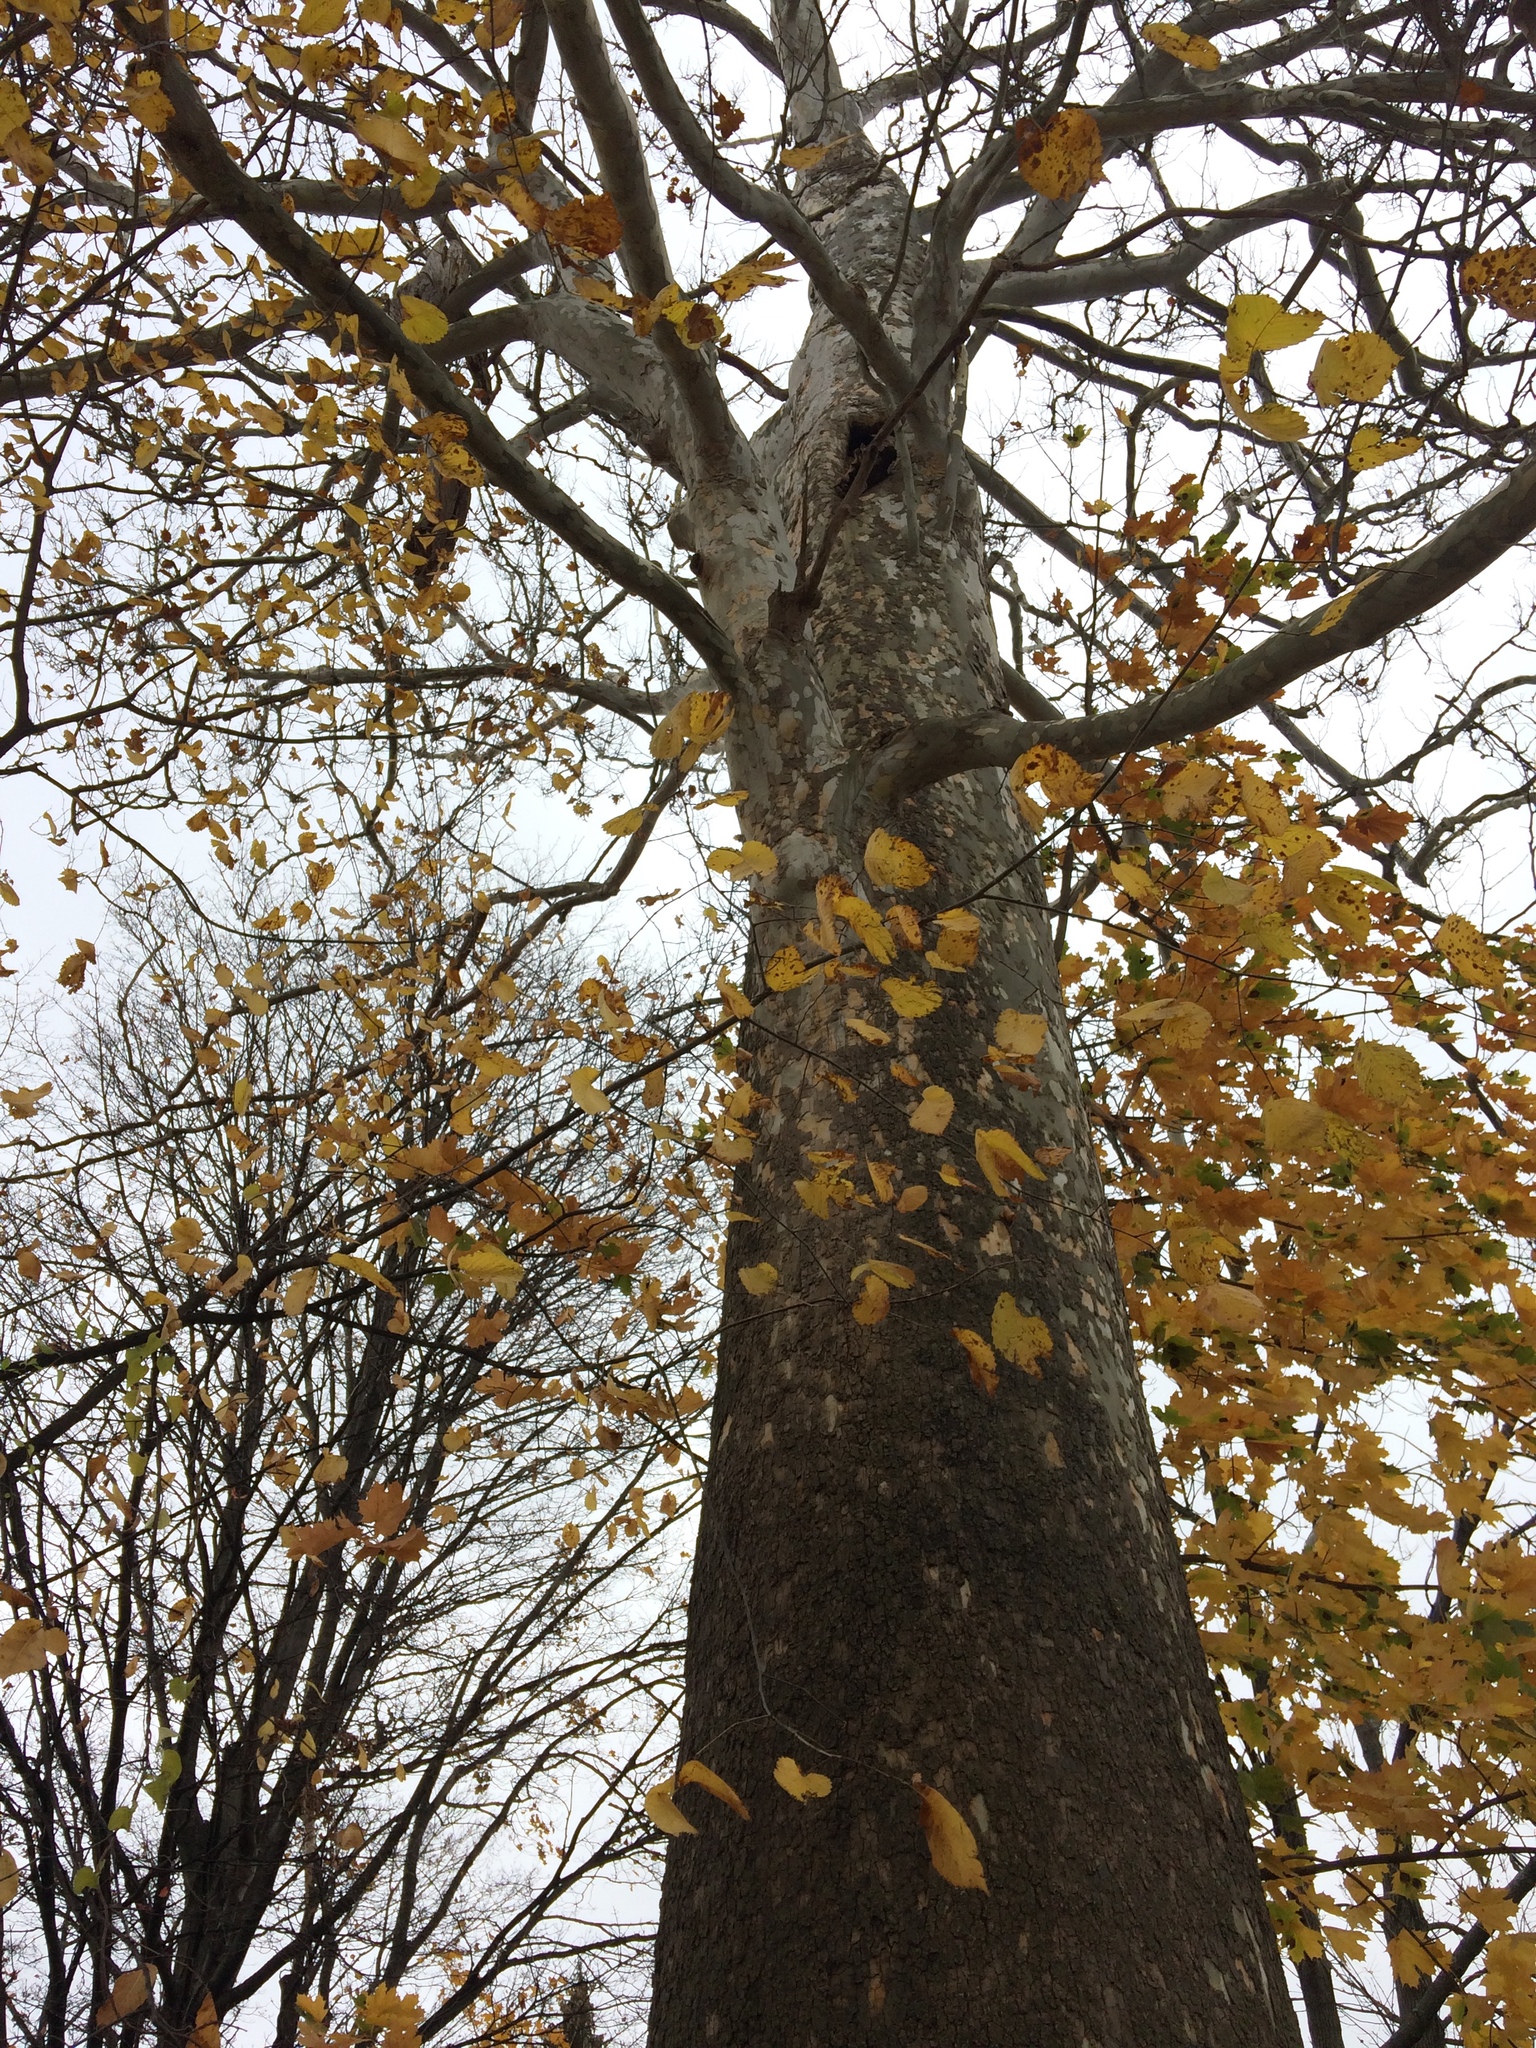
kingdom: Plantae
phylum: Tracheophyta
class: Magnoliopsida
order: Proteales
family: Platanaceae
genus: Platanus
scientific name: Platanus occidentalis
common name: American sycamore
